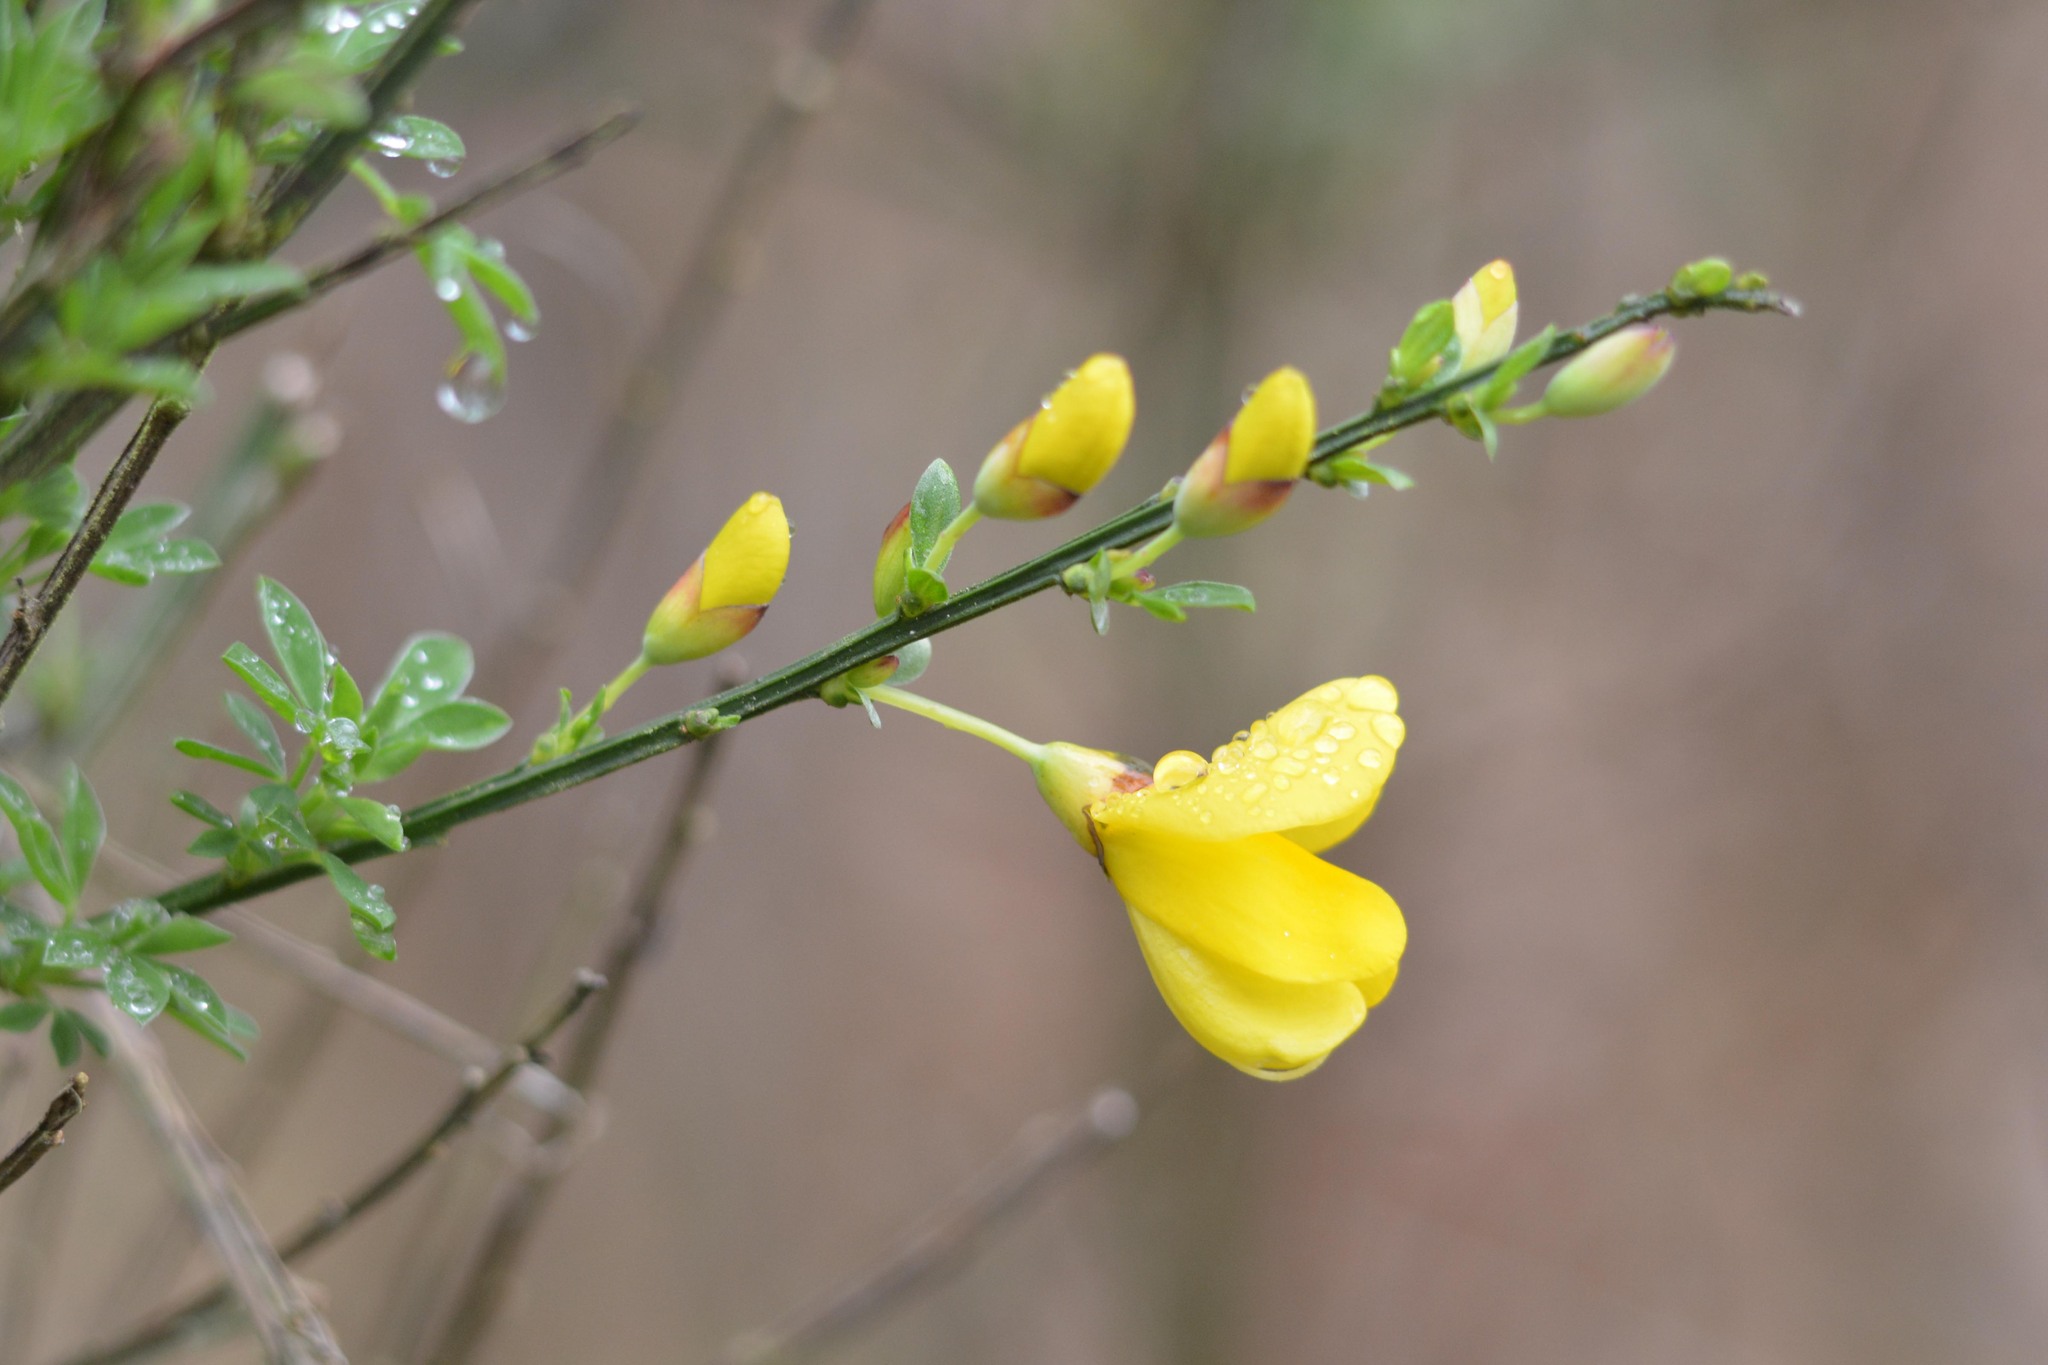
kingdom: Plantae
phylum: Tracheophyta
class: Magnoliopsida
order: Fabales
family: Fabaceae
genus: Cytisus
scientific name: Cytisus scoparius
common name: Scotch broom
